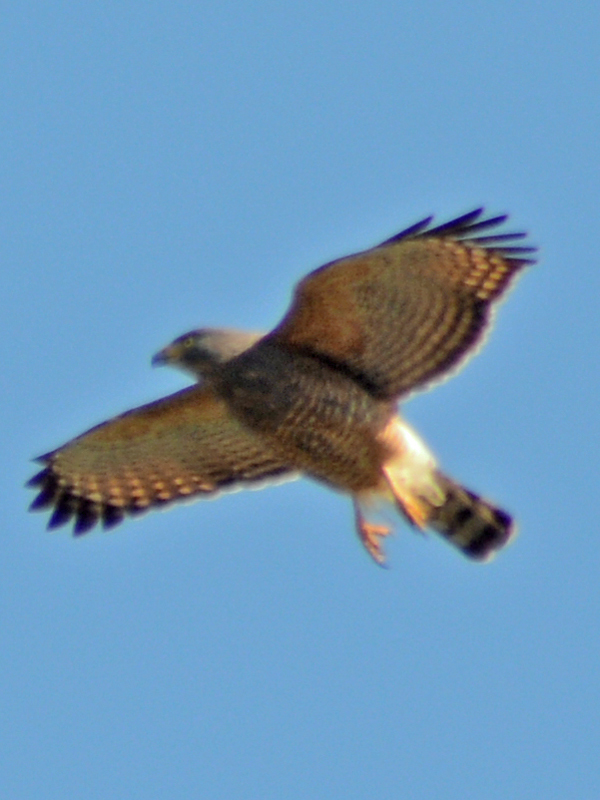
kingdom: Animalia
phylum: Chordata
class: Aves
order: Accipitriformes
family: Accipitridae
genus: Rupornis
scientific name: Rupornis magnirostris
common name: Roadside hawk
